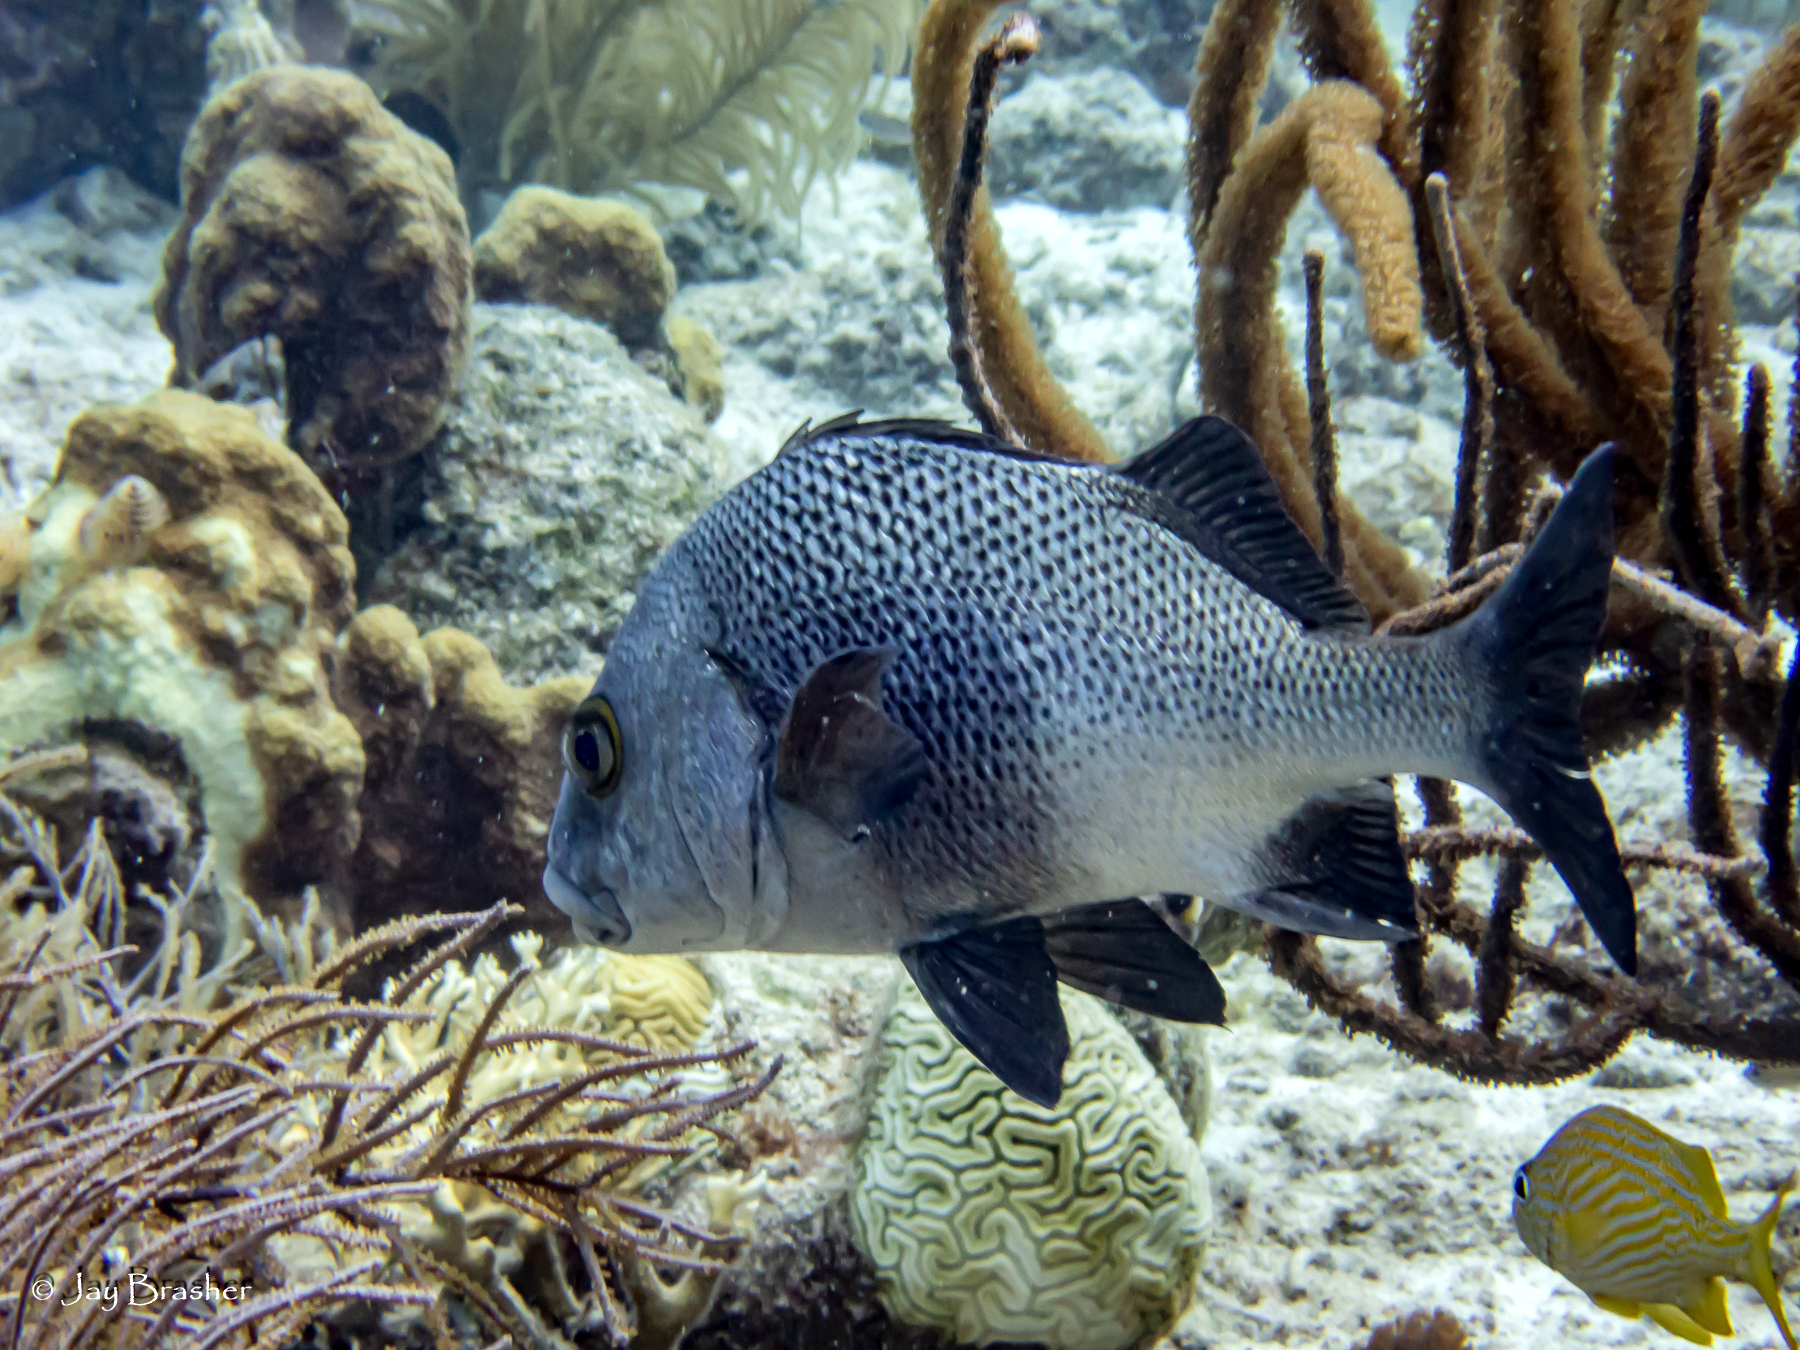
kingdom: Animalia
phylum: Chordata
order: Perciformes
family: Haemulidae
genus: Haemulon
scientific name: Haemulon flavolineatum
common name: French grunt
